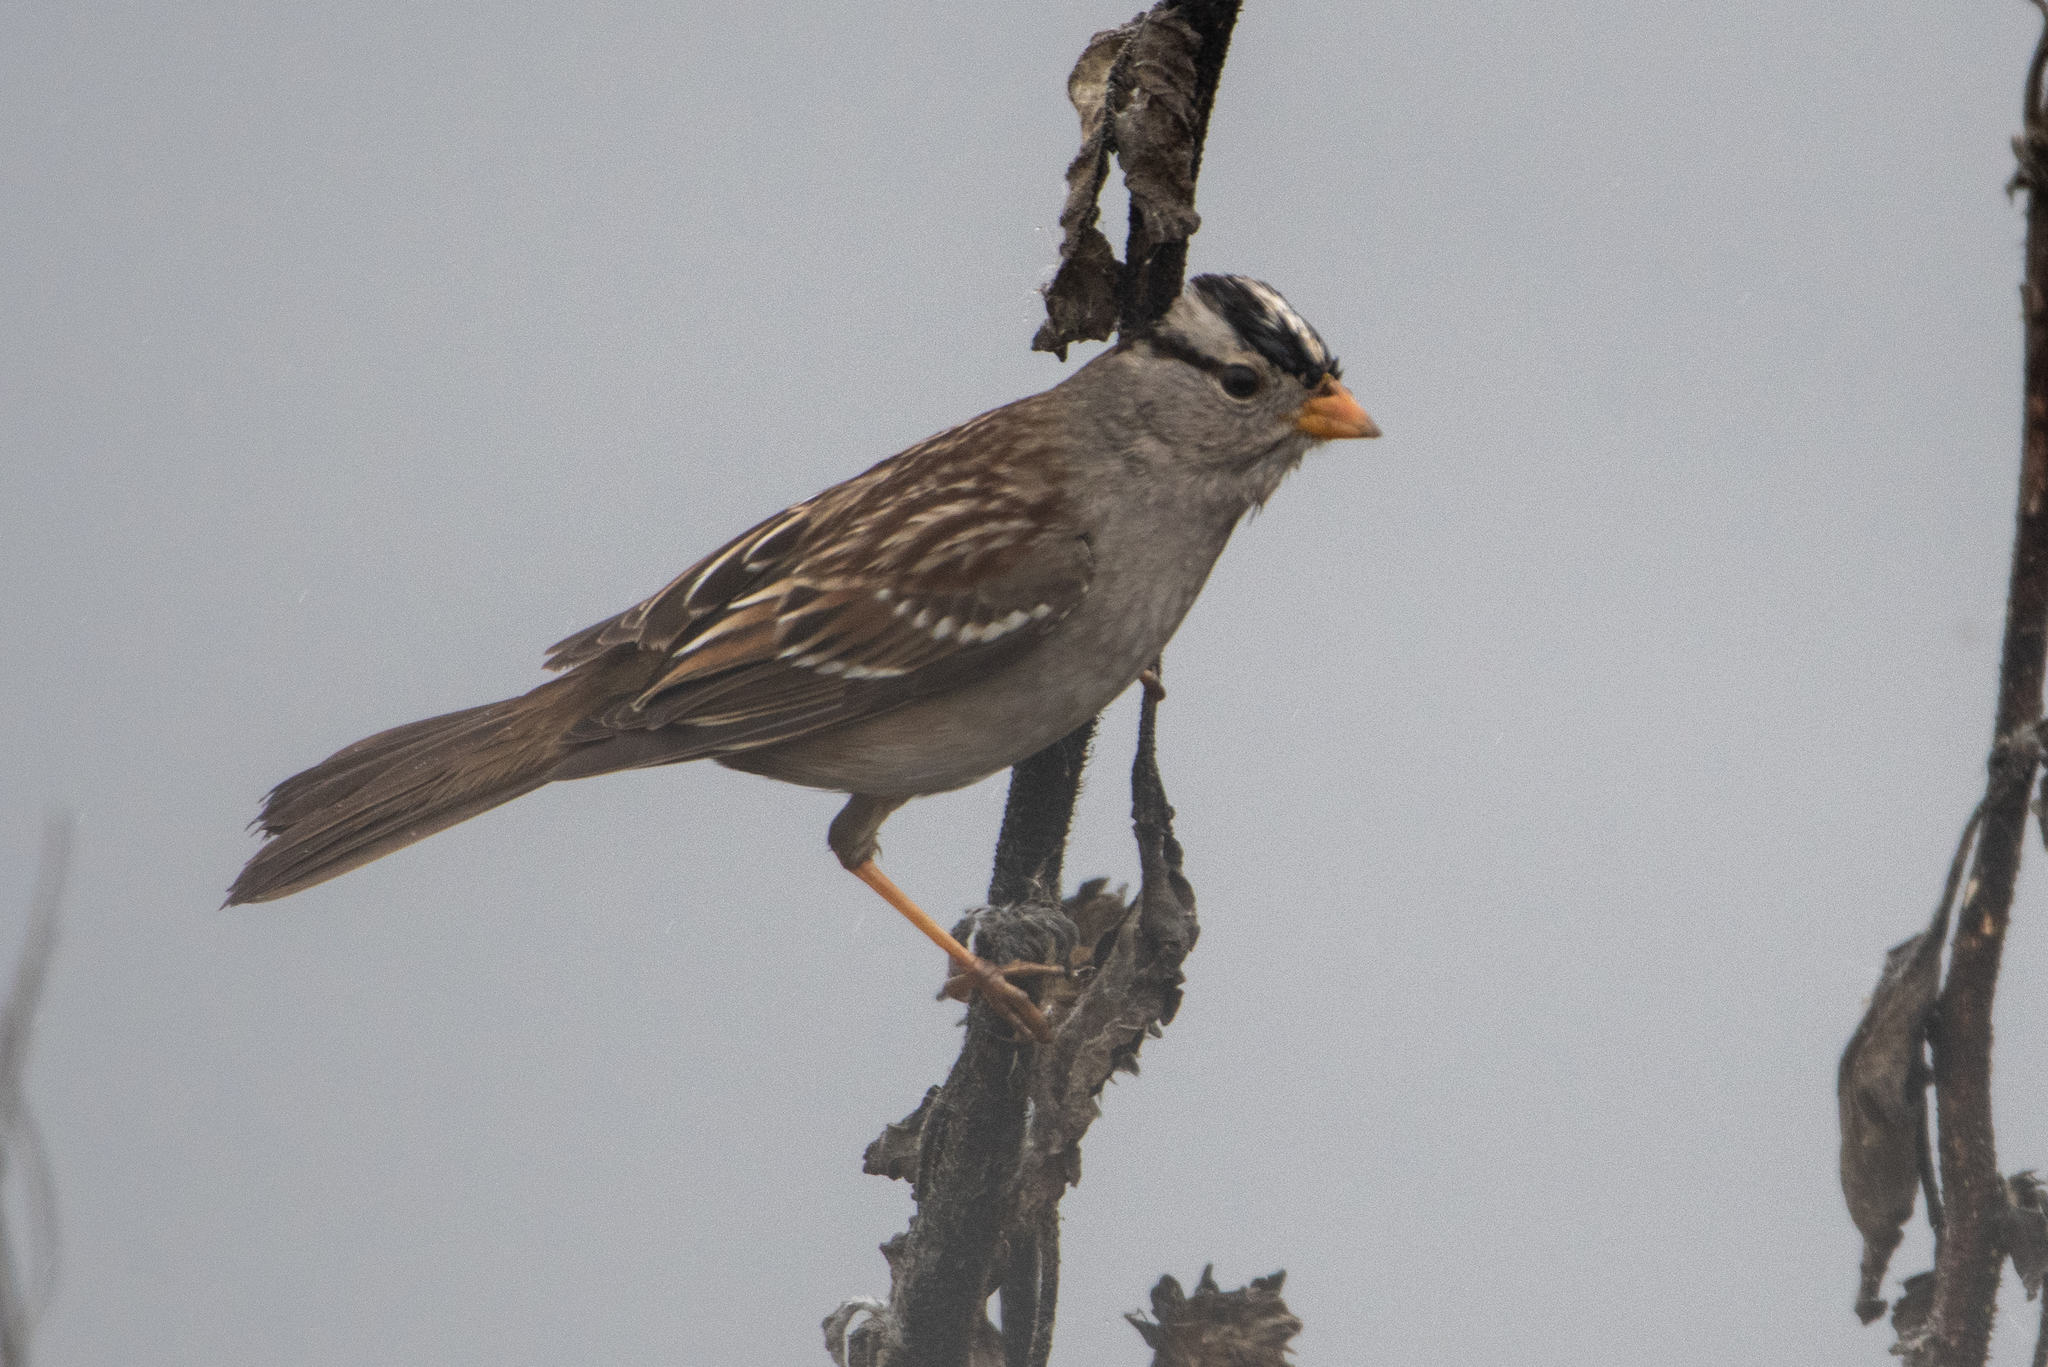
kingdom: Animalia
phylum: Chordata
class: Aves
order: Passeriformes
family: Passerellidae
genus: Zonotrichia
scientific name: Zonotrichia leucophrys
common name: White-crowned sparrow
